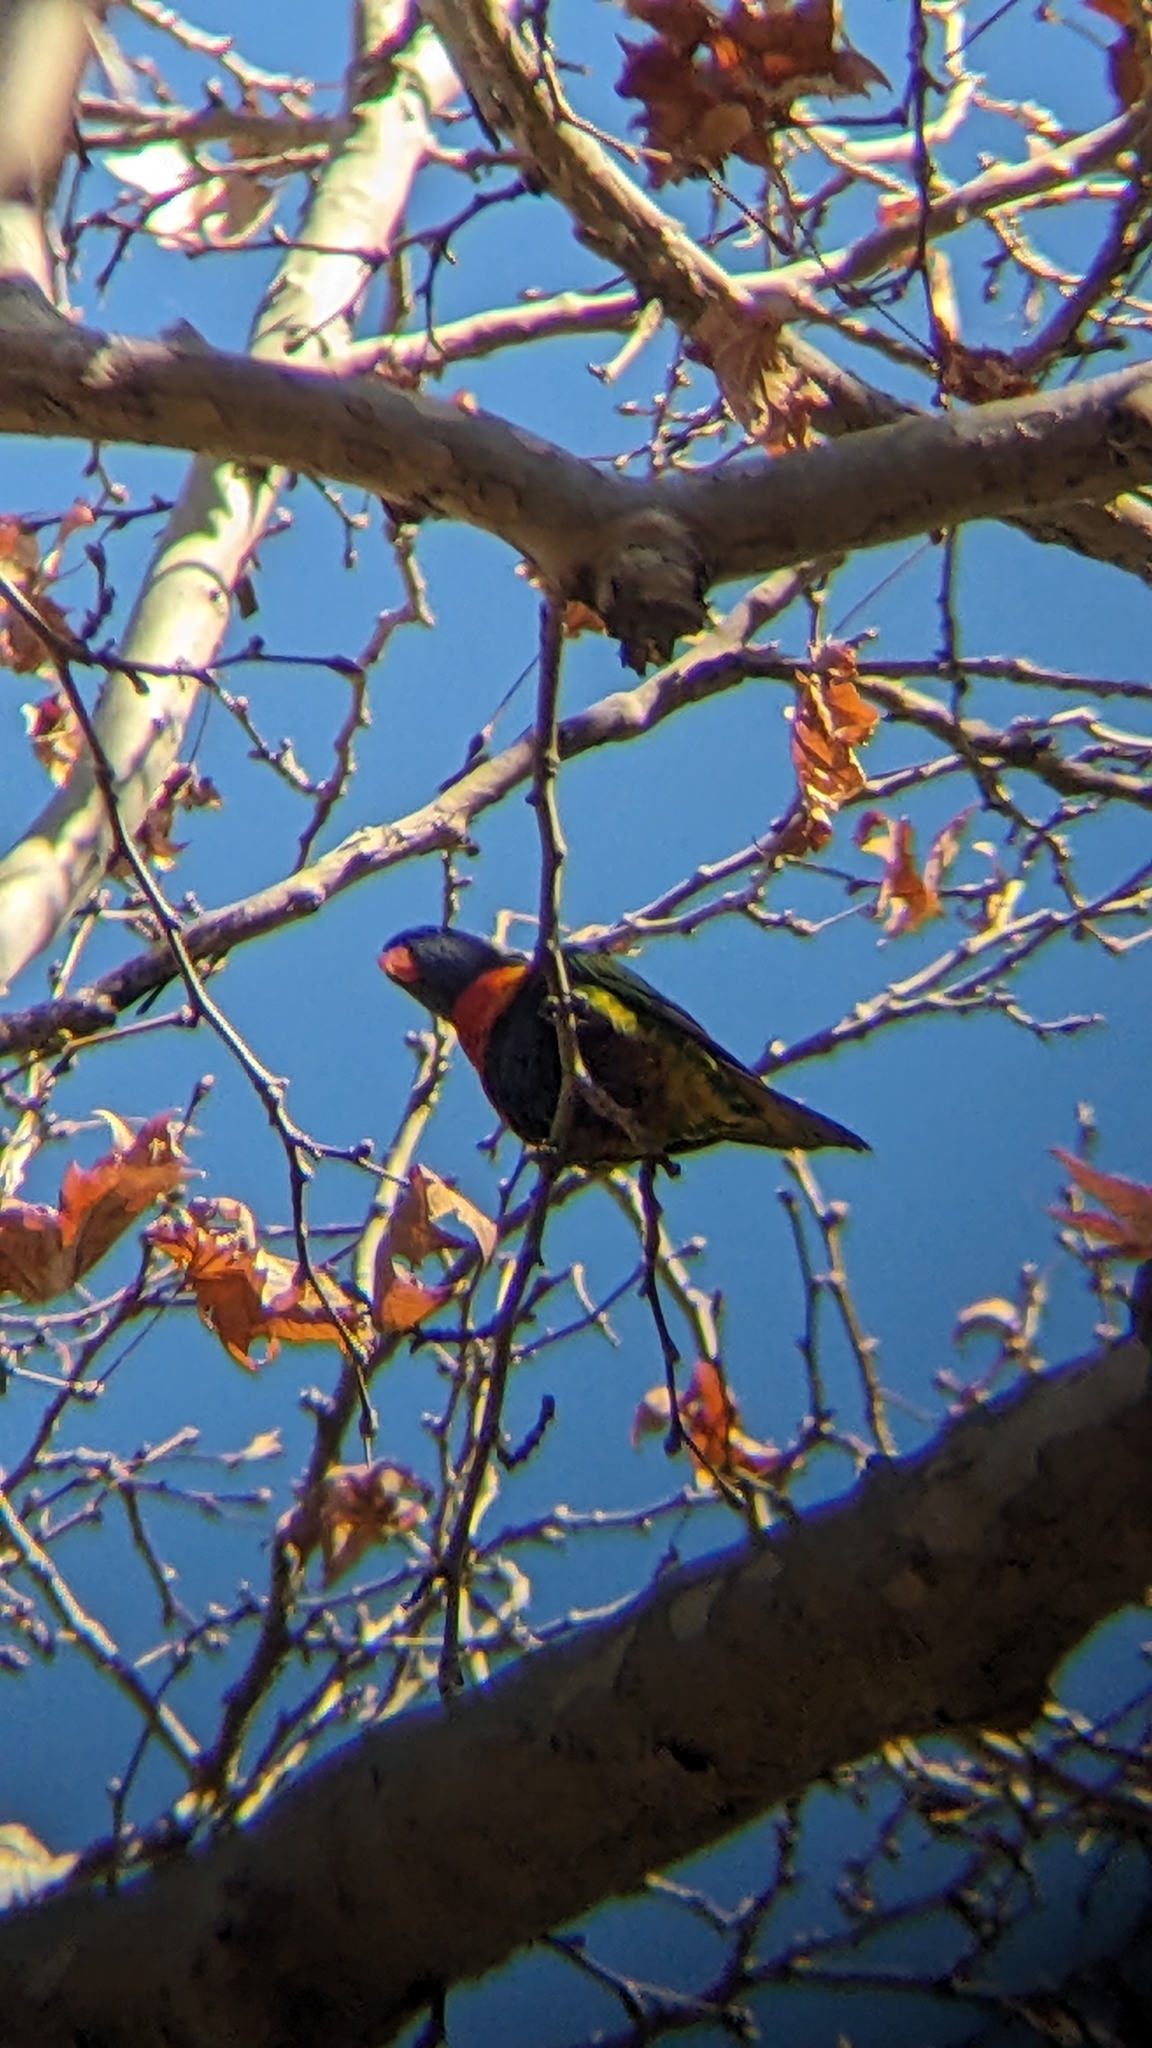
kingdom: Animalia
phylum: Chordata
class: Aves
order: Psittaciformes
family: Psittacidae
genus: Trichoglossus
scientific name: Trichoglossus haematodus
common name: Coconut lorikeet
